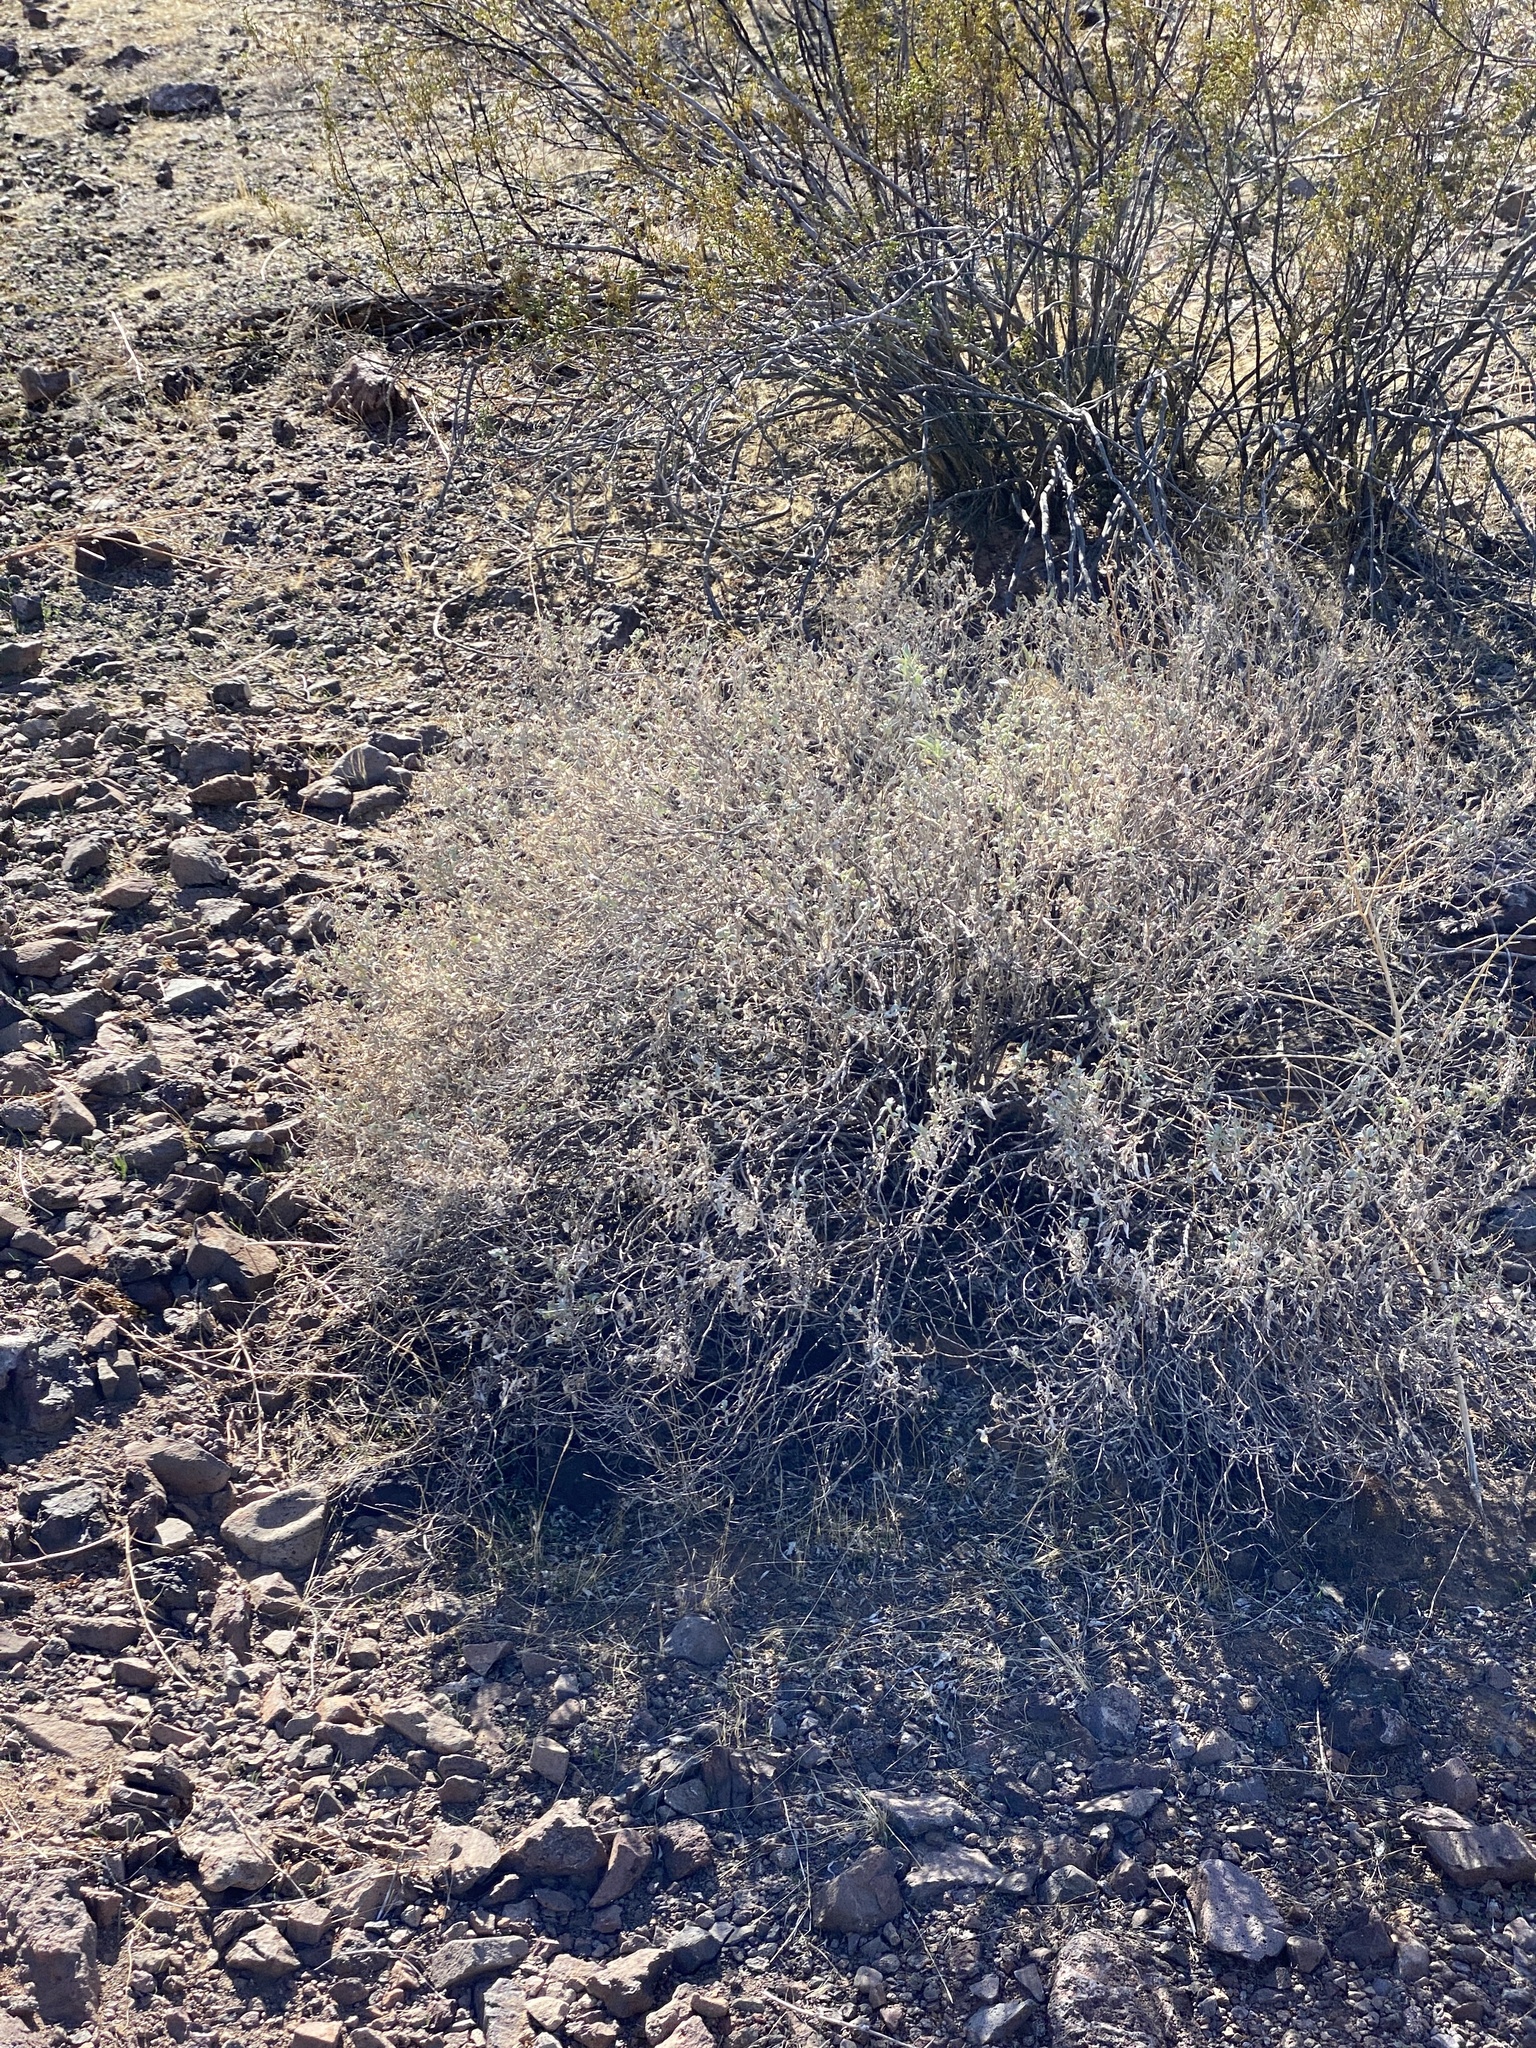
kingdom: Plantae
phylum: Tracheophyta
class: Magnoliopsida
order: Asterales
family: Asteraceae
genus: Ambrosia
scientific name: Ambrosia deltoidea
